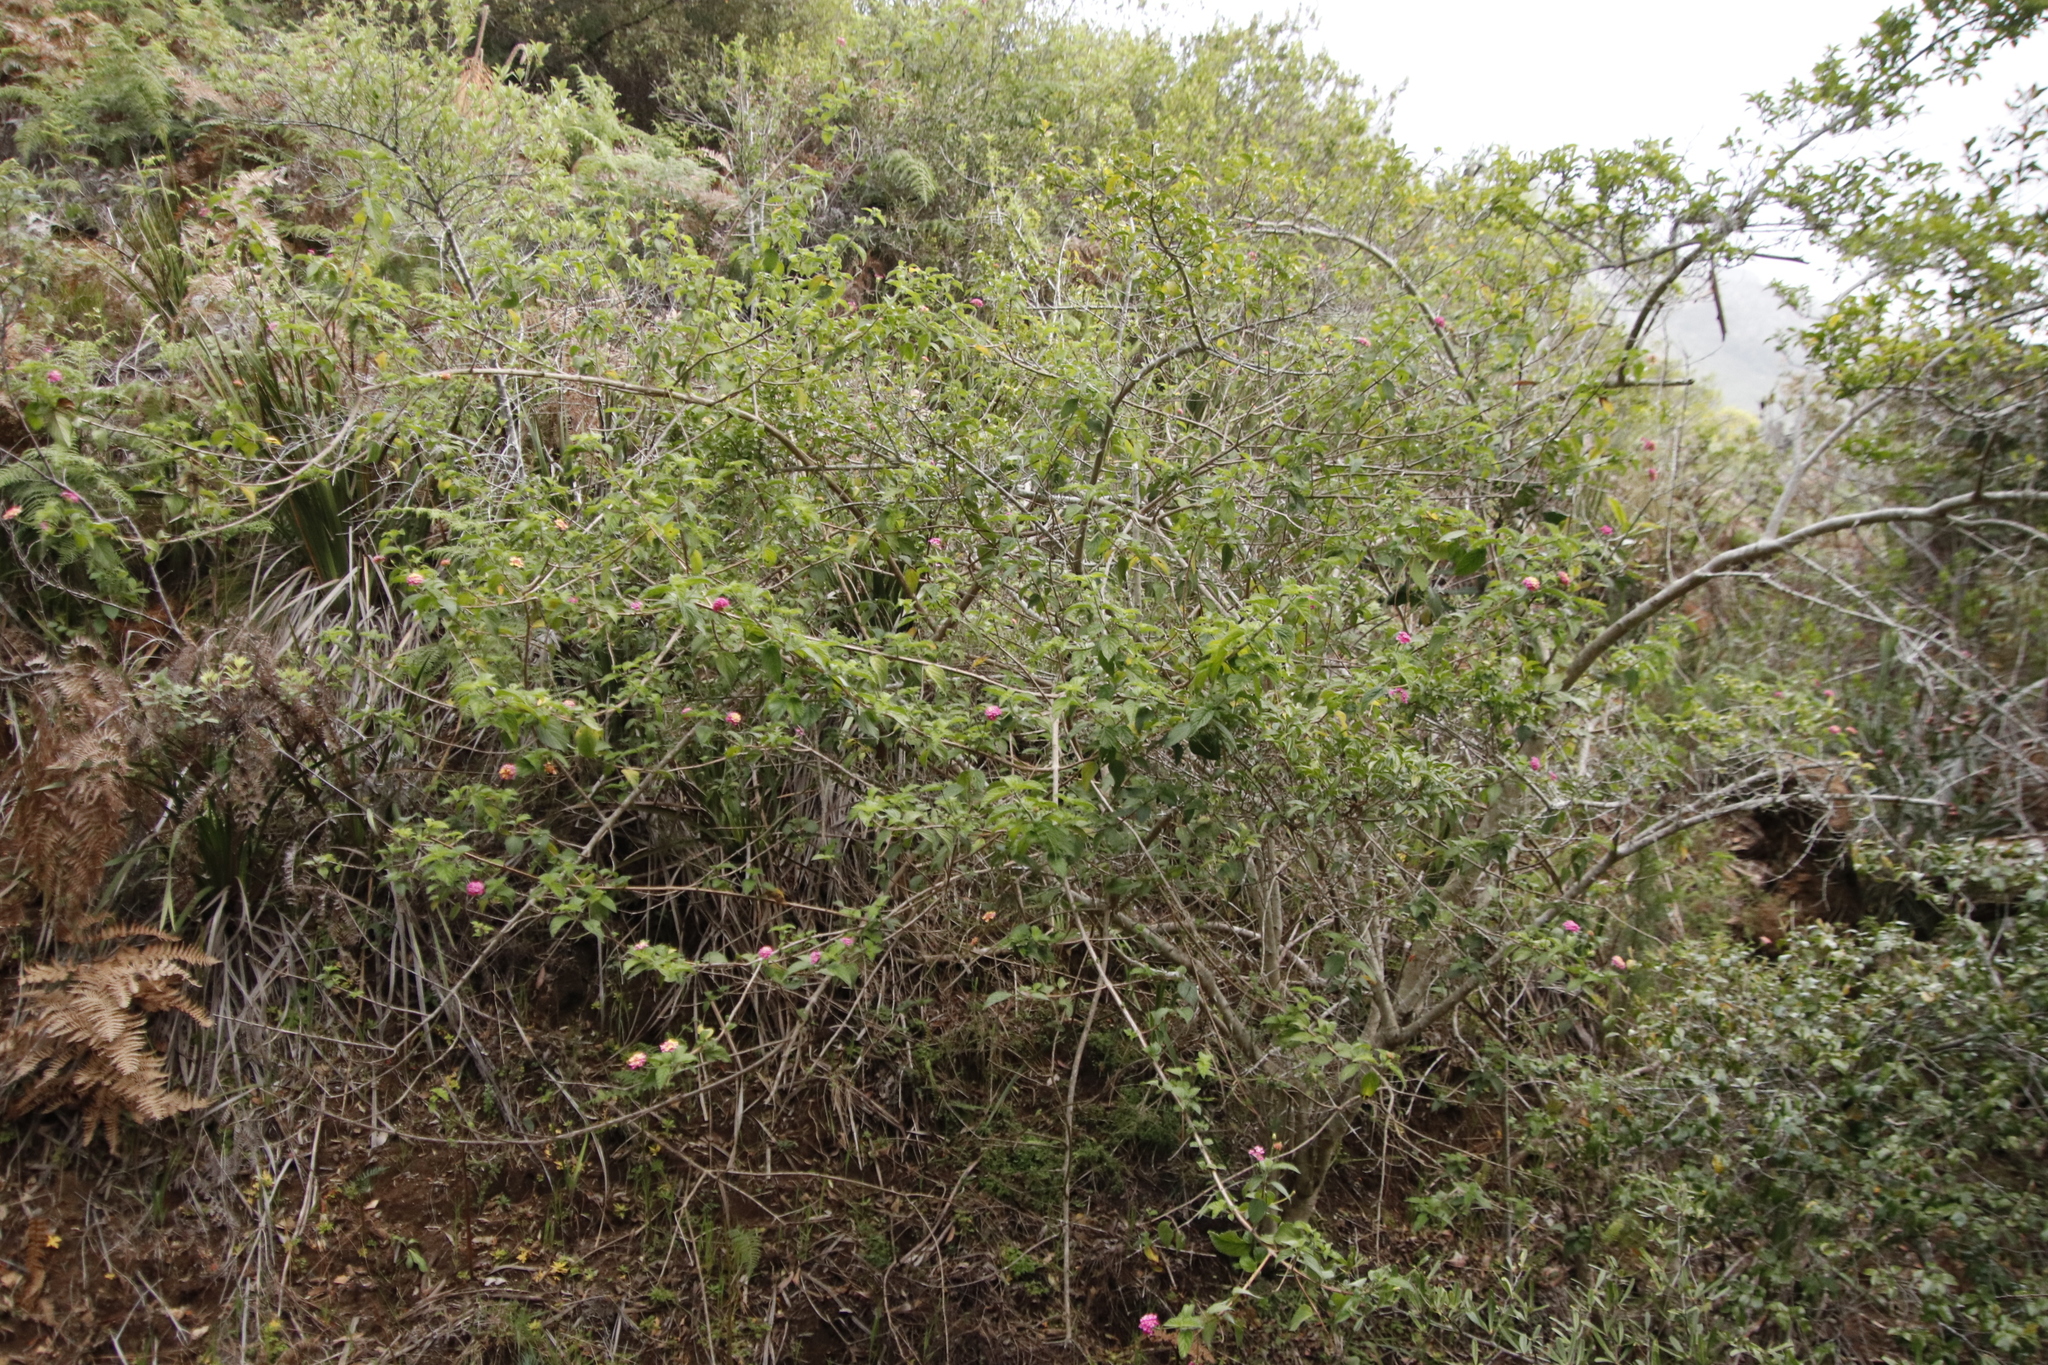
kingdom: Plantae
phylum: Tracheophyta
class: Magnoliopsida
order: Lamiales
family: Verbenaceae
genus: Lantana
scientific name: Lantana camara
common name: Lantana
